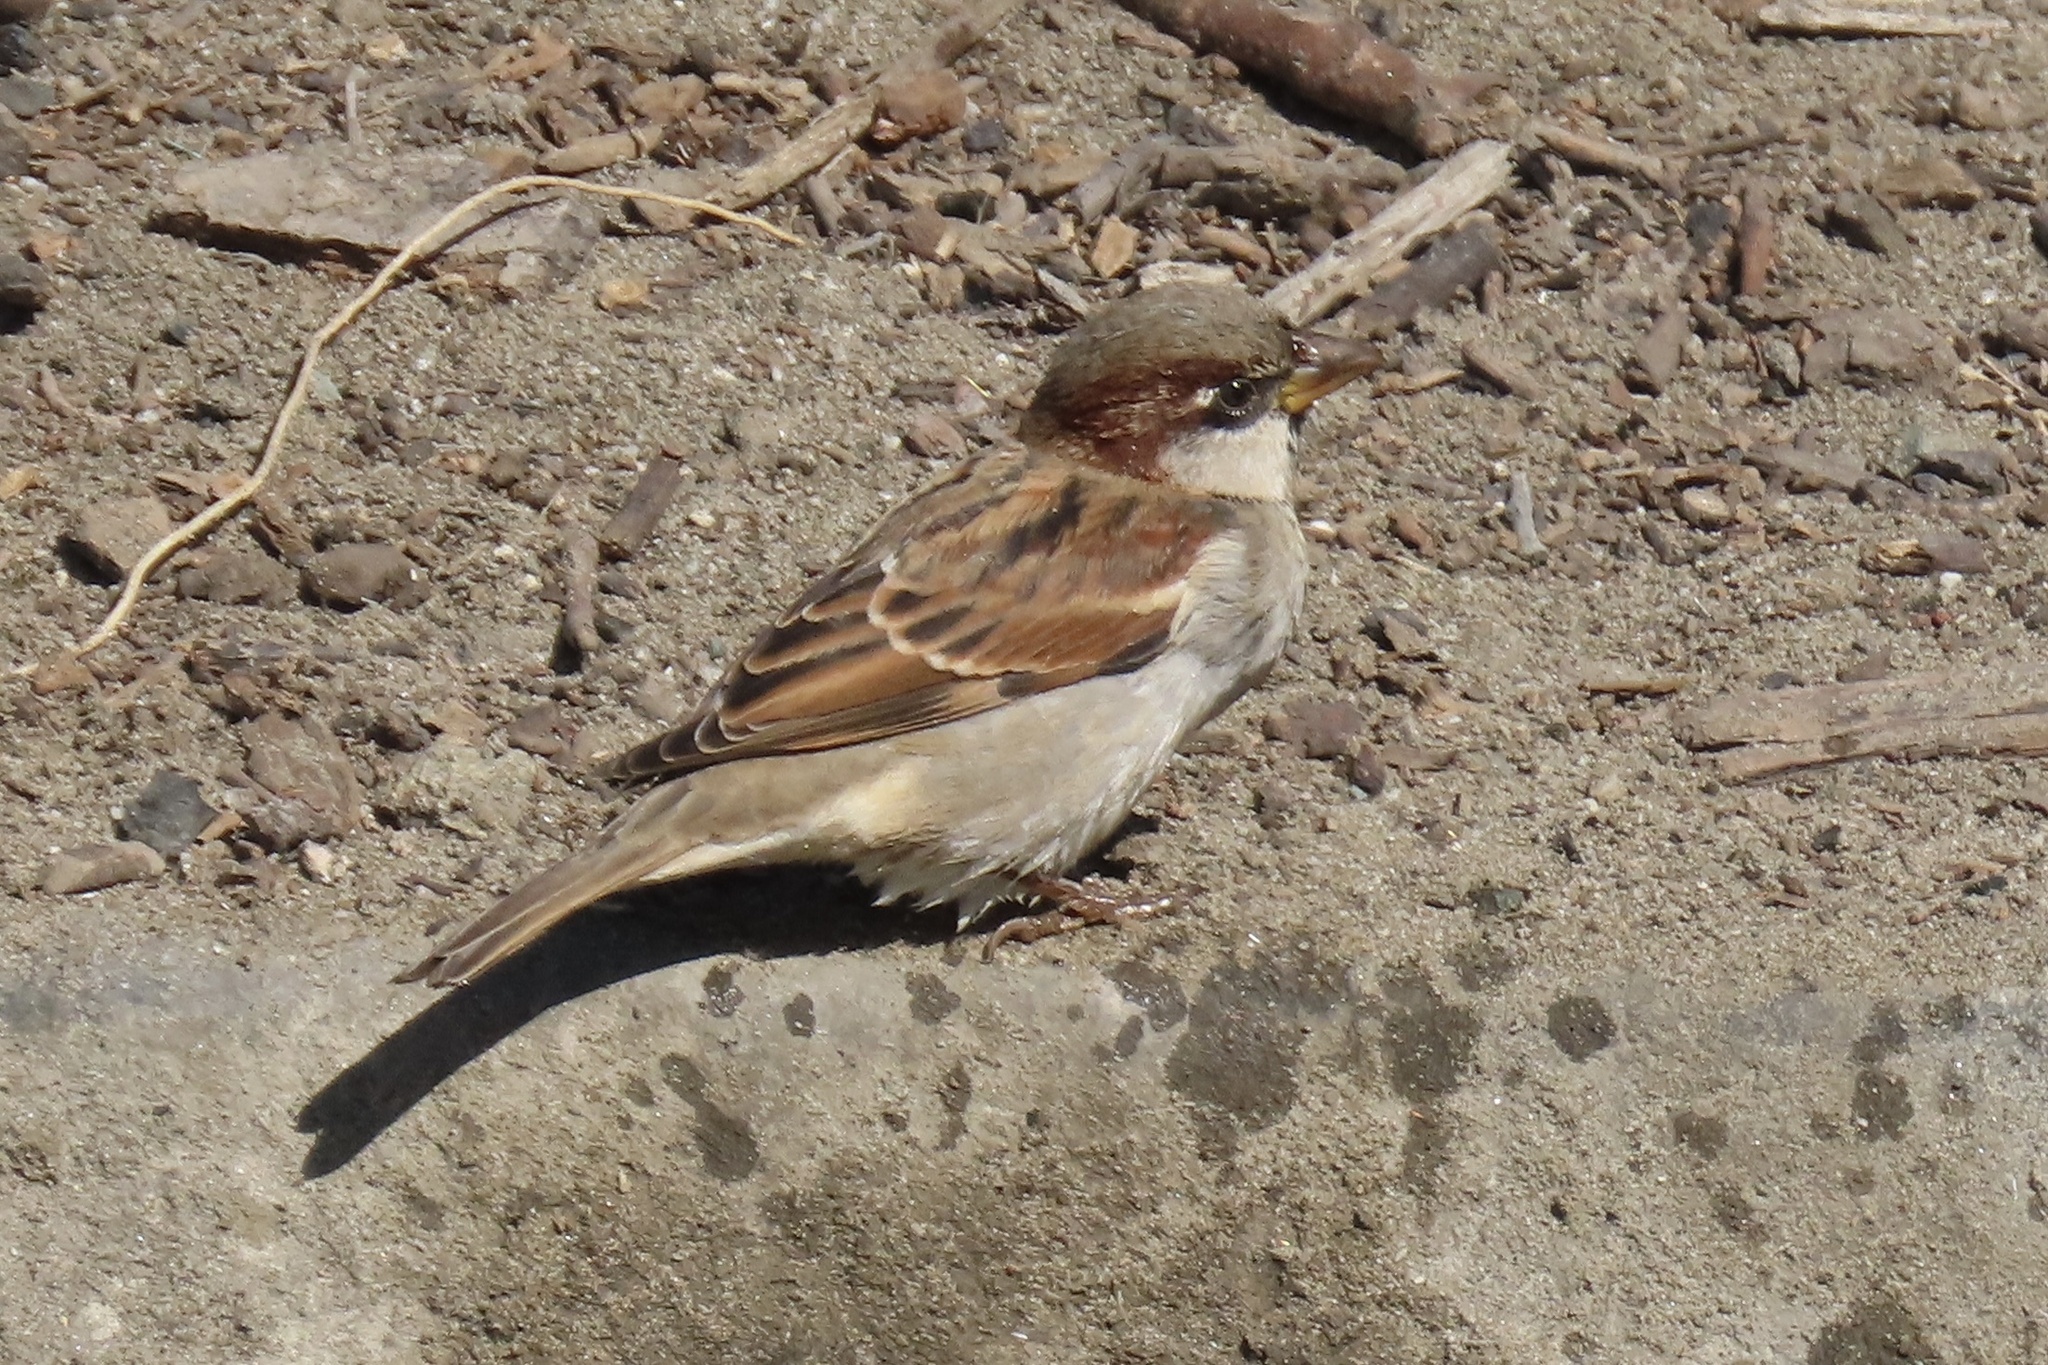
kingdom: Animalia
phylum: Chordata
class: Aves
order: Passeriformes
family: Passeridae
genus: Passer
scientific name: Passer domesticus
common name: House sparrow
